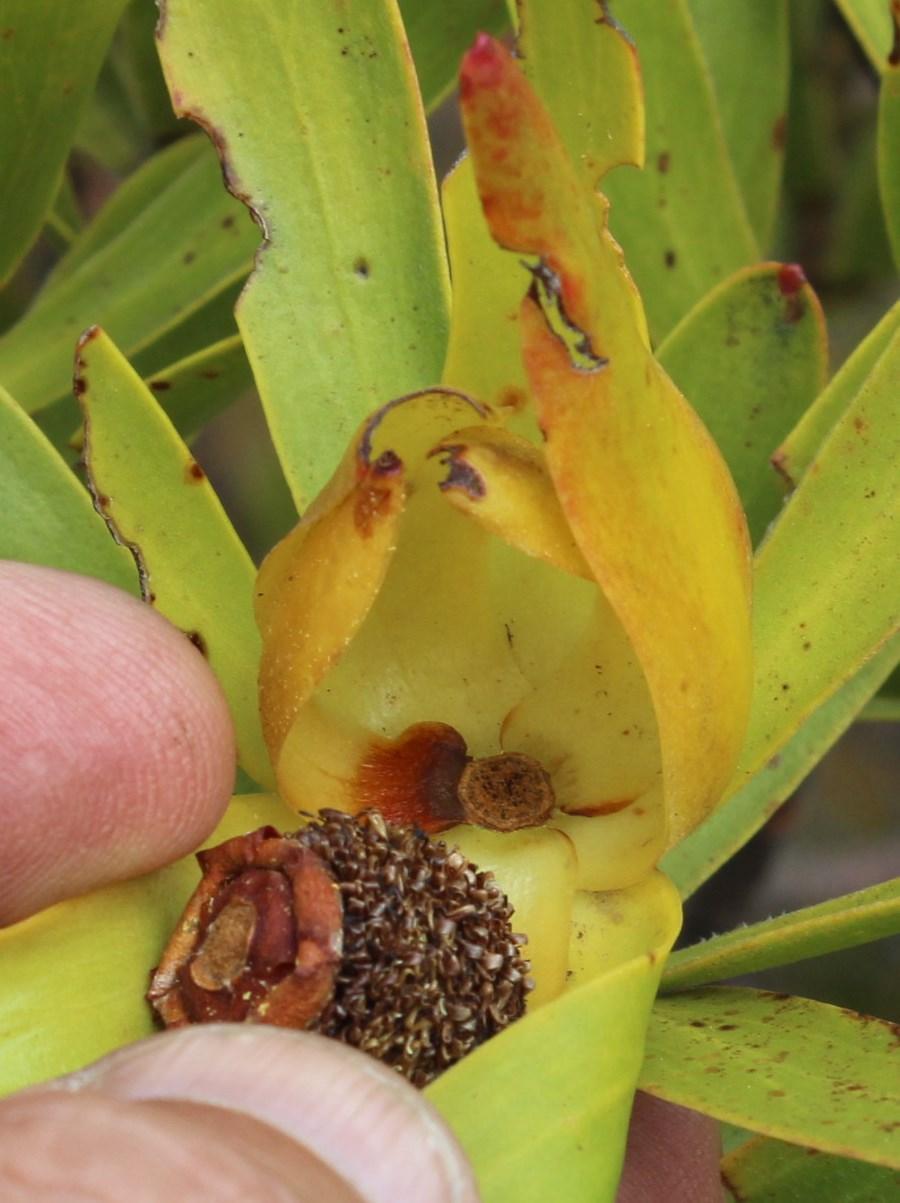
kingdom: Plantae
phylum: Tracheophyta
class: Magnoliopsida
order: Proteales
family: Proteaceae
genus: Leucadendron
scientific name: Leucadendron laureolum
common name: Golden sunshinebush
